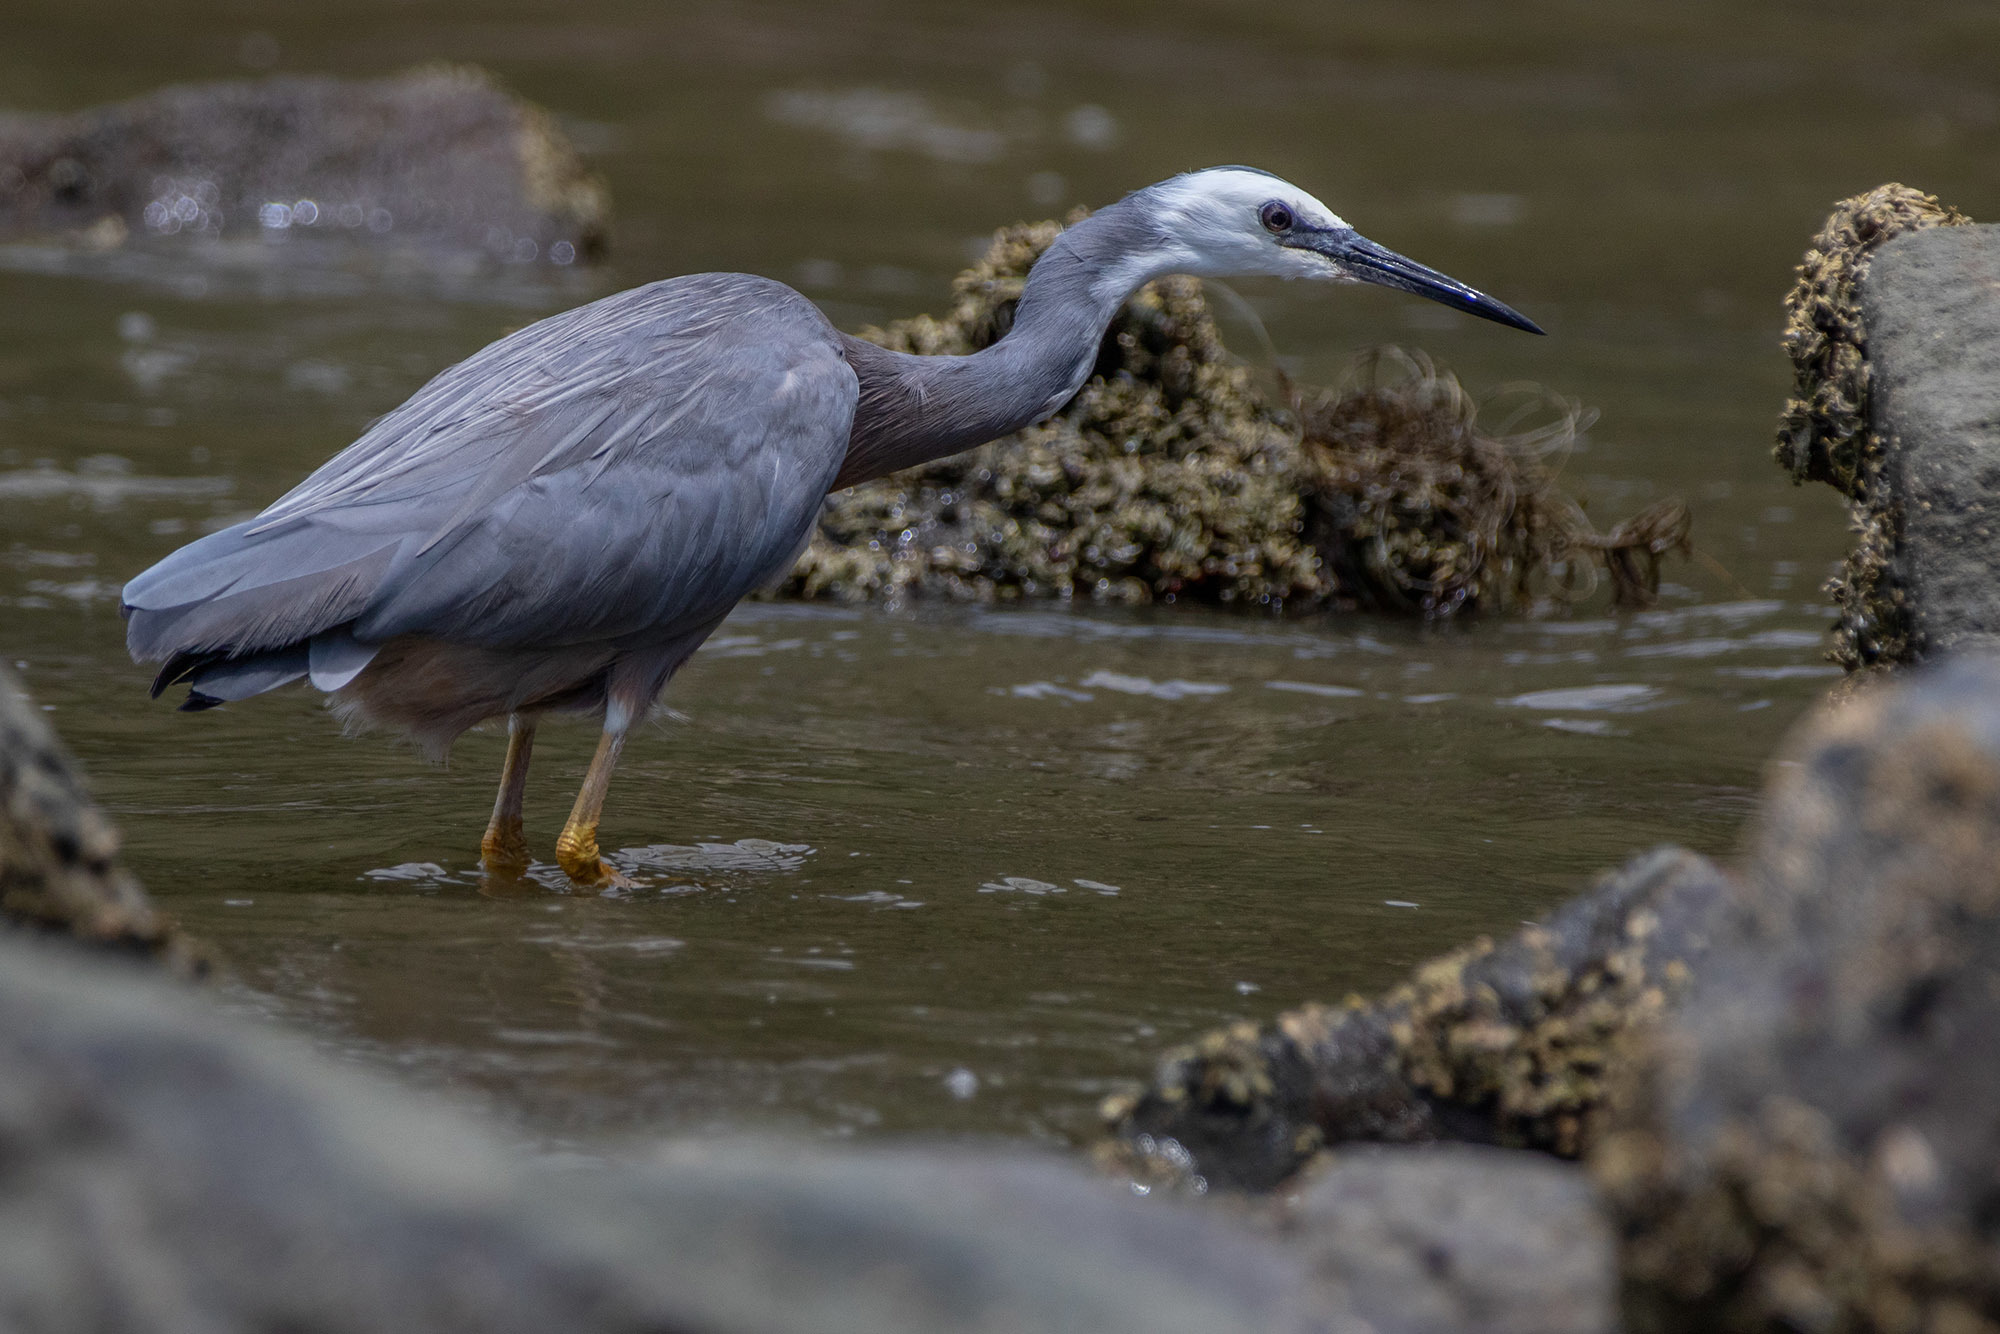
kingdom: Animalia
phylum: Chordata
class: Aves
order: Pelecaniformes
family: Ardeidae
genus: Egretta
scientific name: Egretta novaehollandiae
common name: White-faced heron
